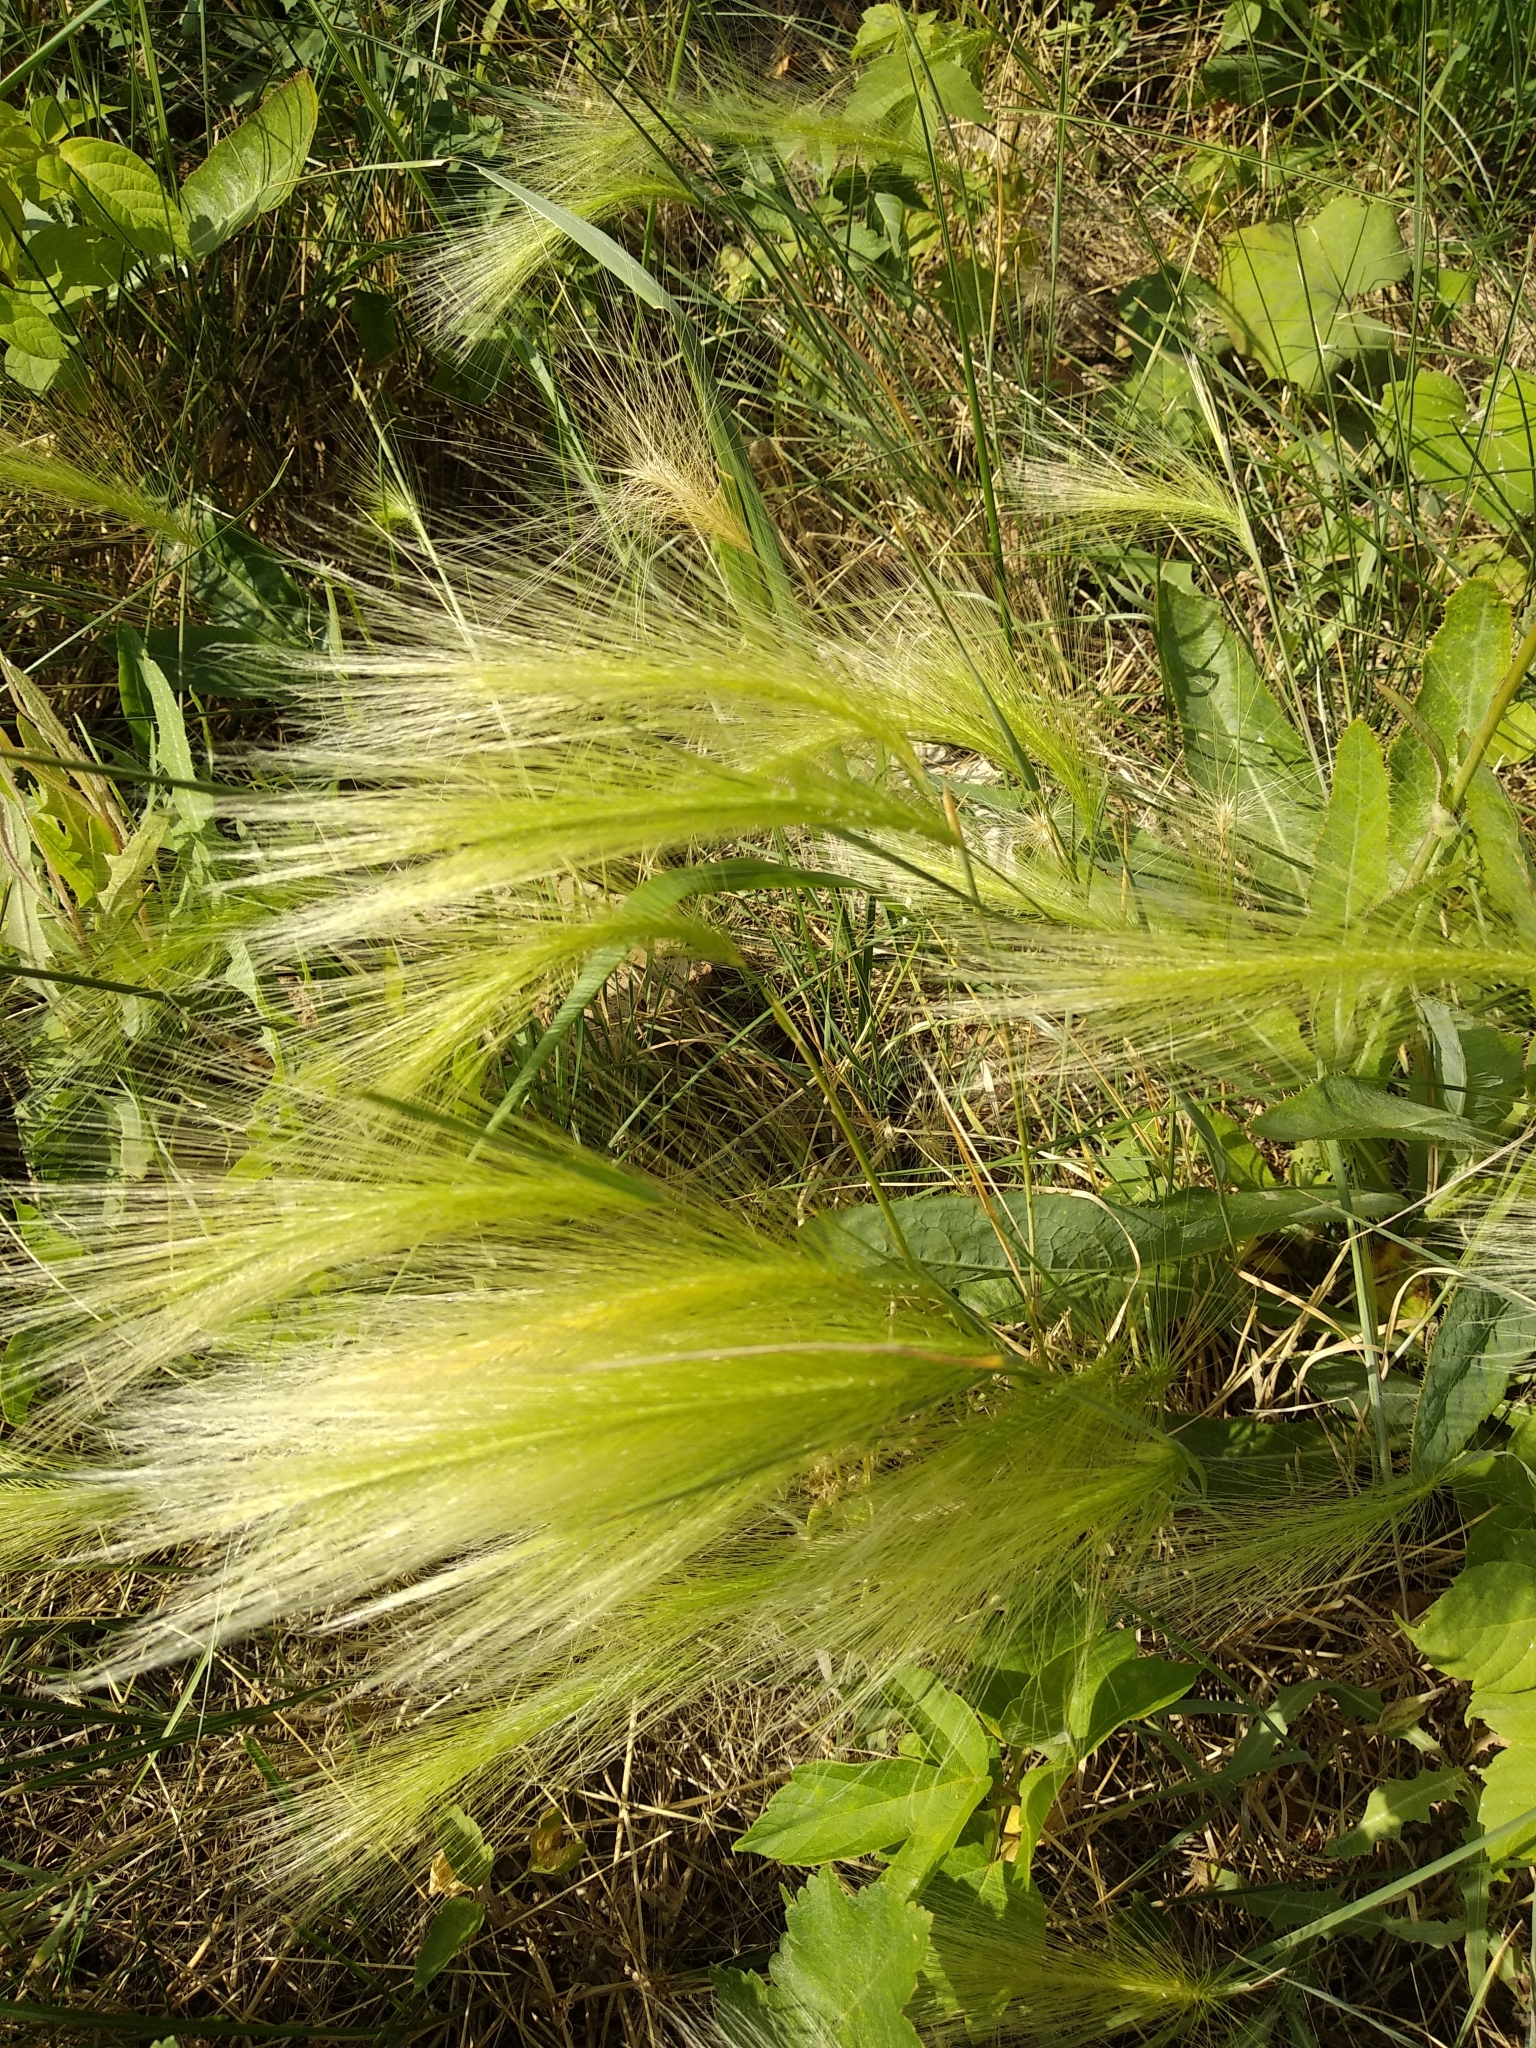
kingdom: Plantae
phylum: Tracheophyta
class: Liliopsida
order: Poales
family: Poaceae
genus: Hordeum
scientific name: Hordeum jubatum
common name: Foxtail barley
